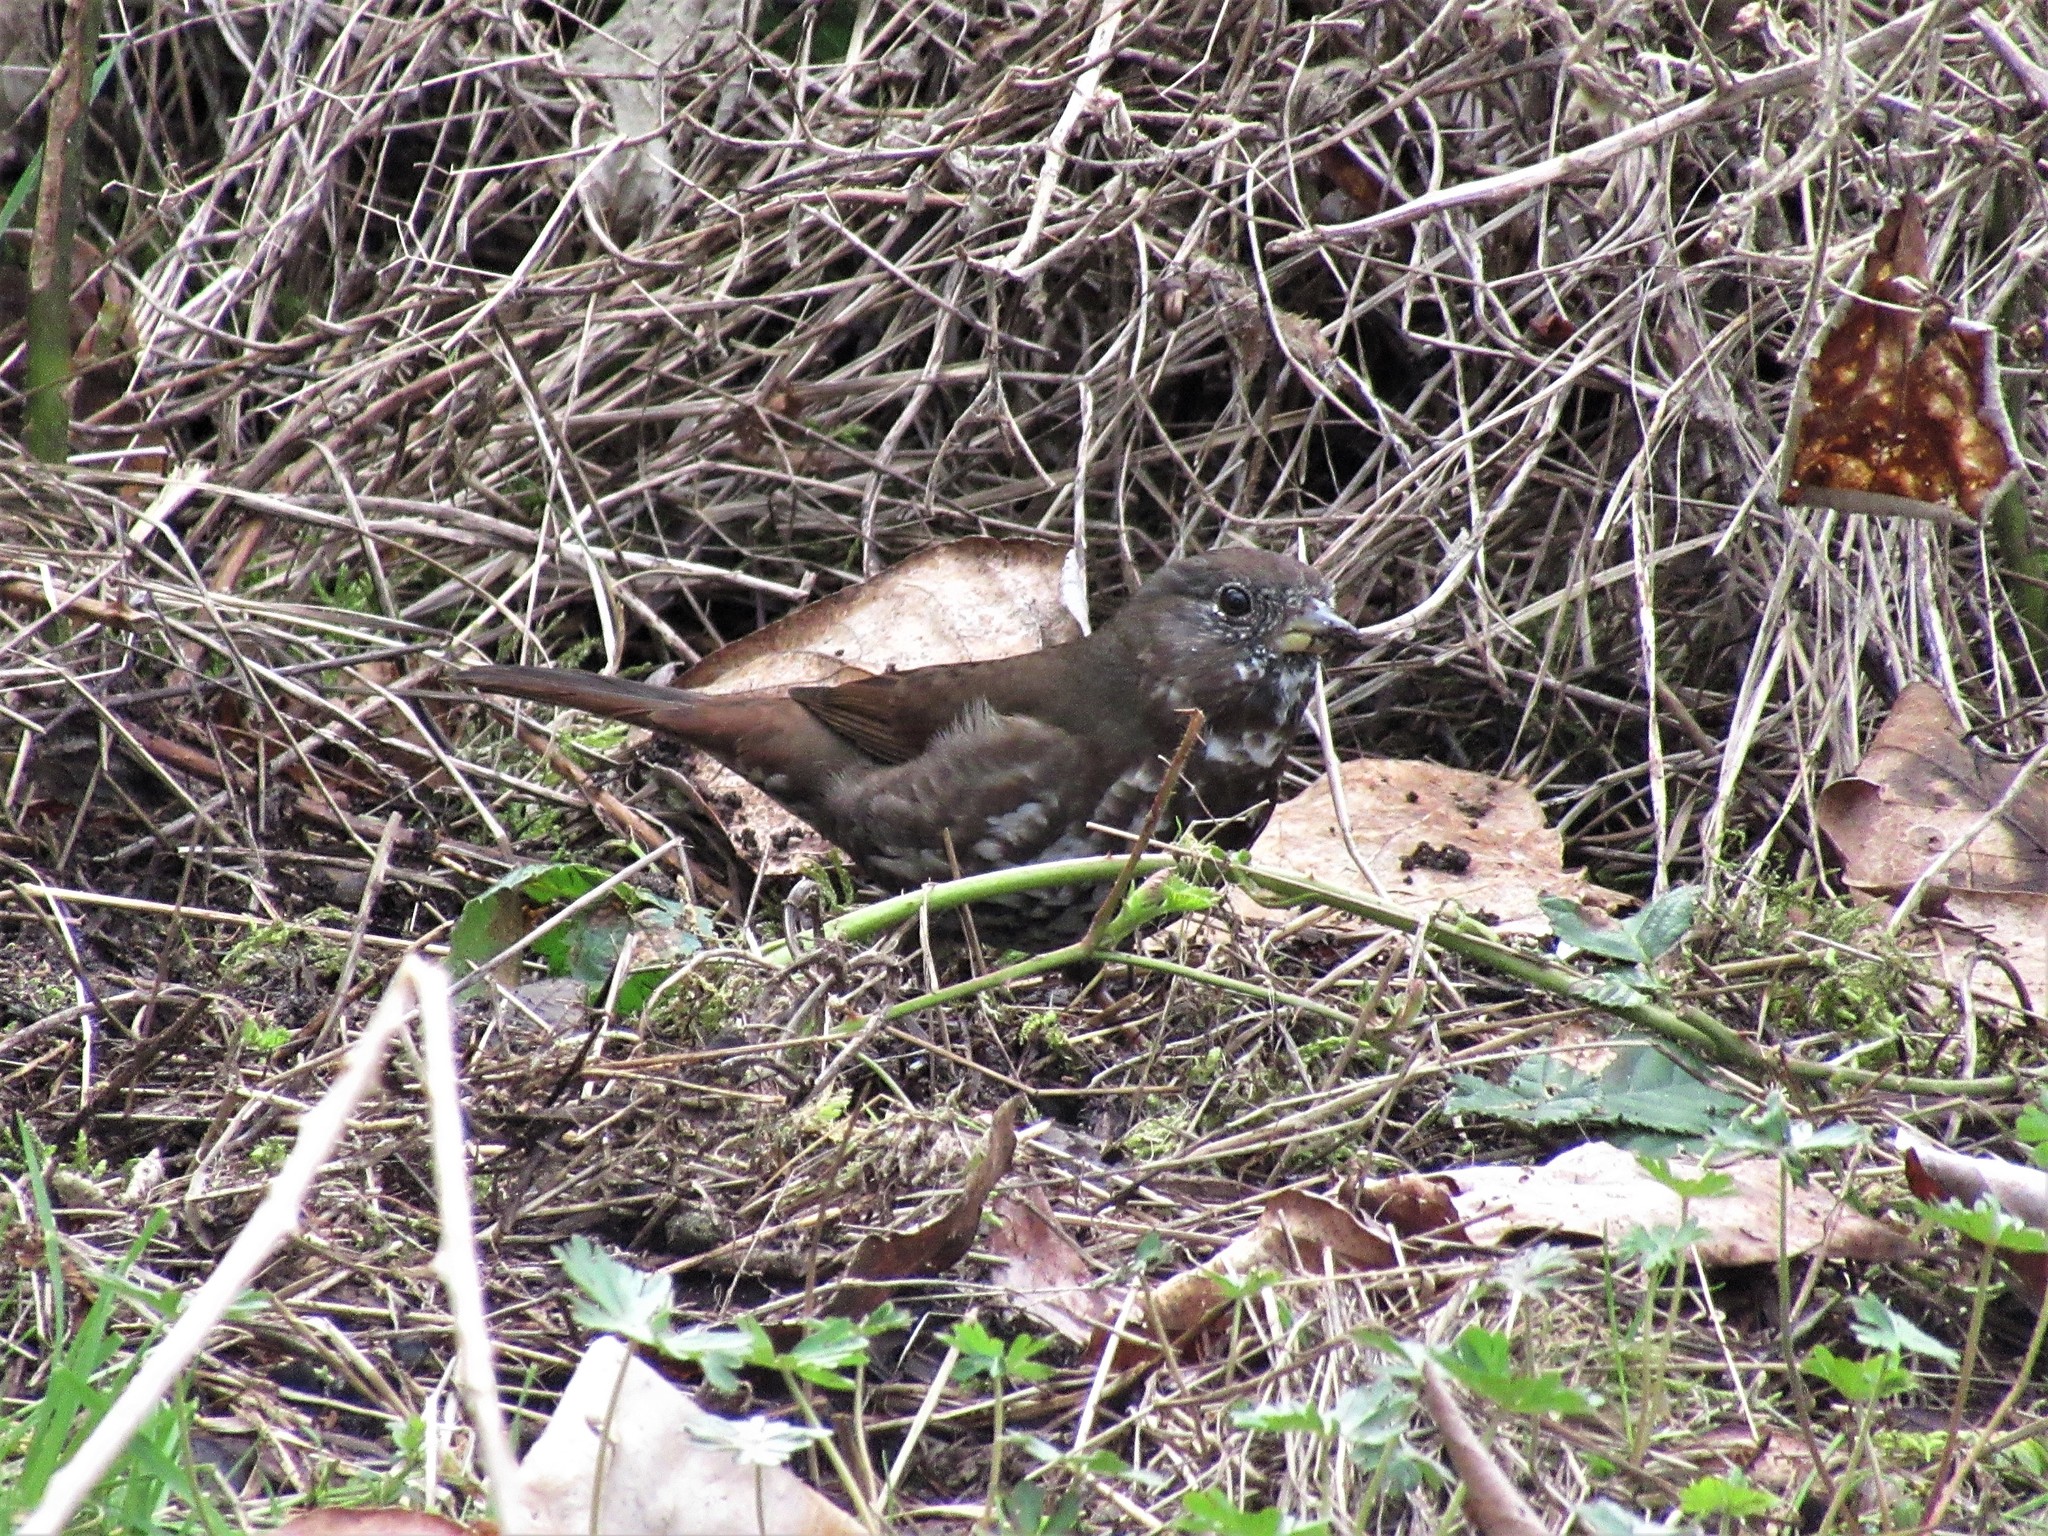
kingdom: Animalia
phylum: Chordata
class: Aves
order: Passeriformes
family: Passerellidae
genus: Passerella
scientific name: Passerella iliaca
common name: Fox sparrow
